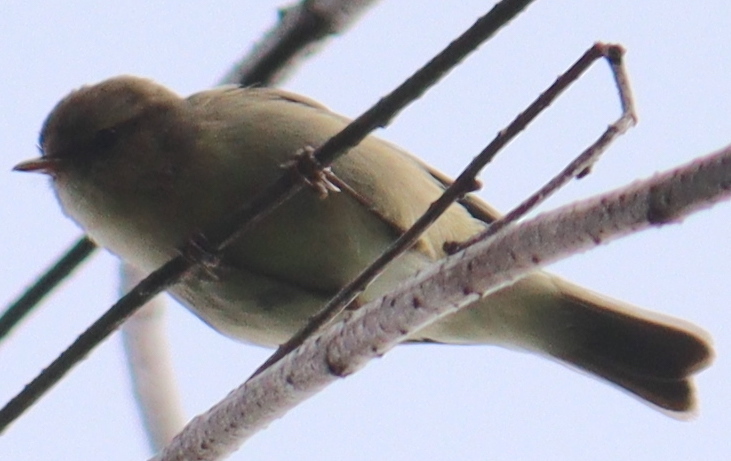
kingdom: Animalia
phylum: Chordata
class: Aves
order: Passeriformes
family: Phylloscopidae
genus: Phylloscopus
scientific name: Phylloscopus collybita
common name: Common chiffchaff
